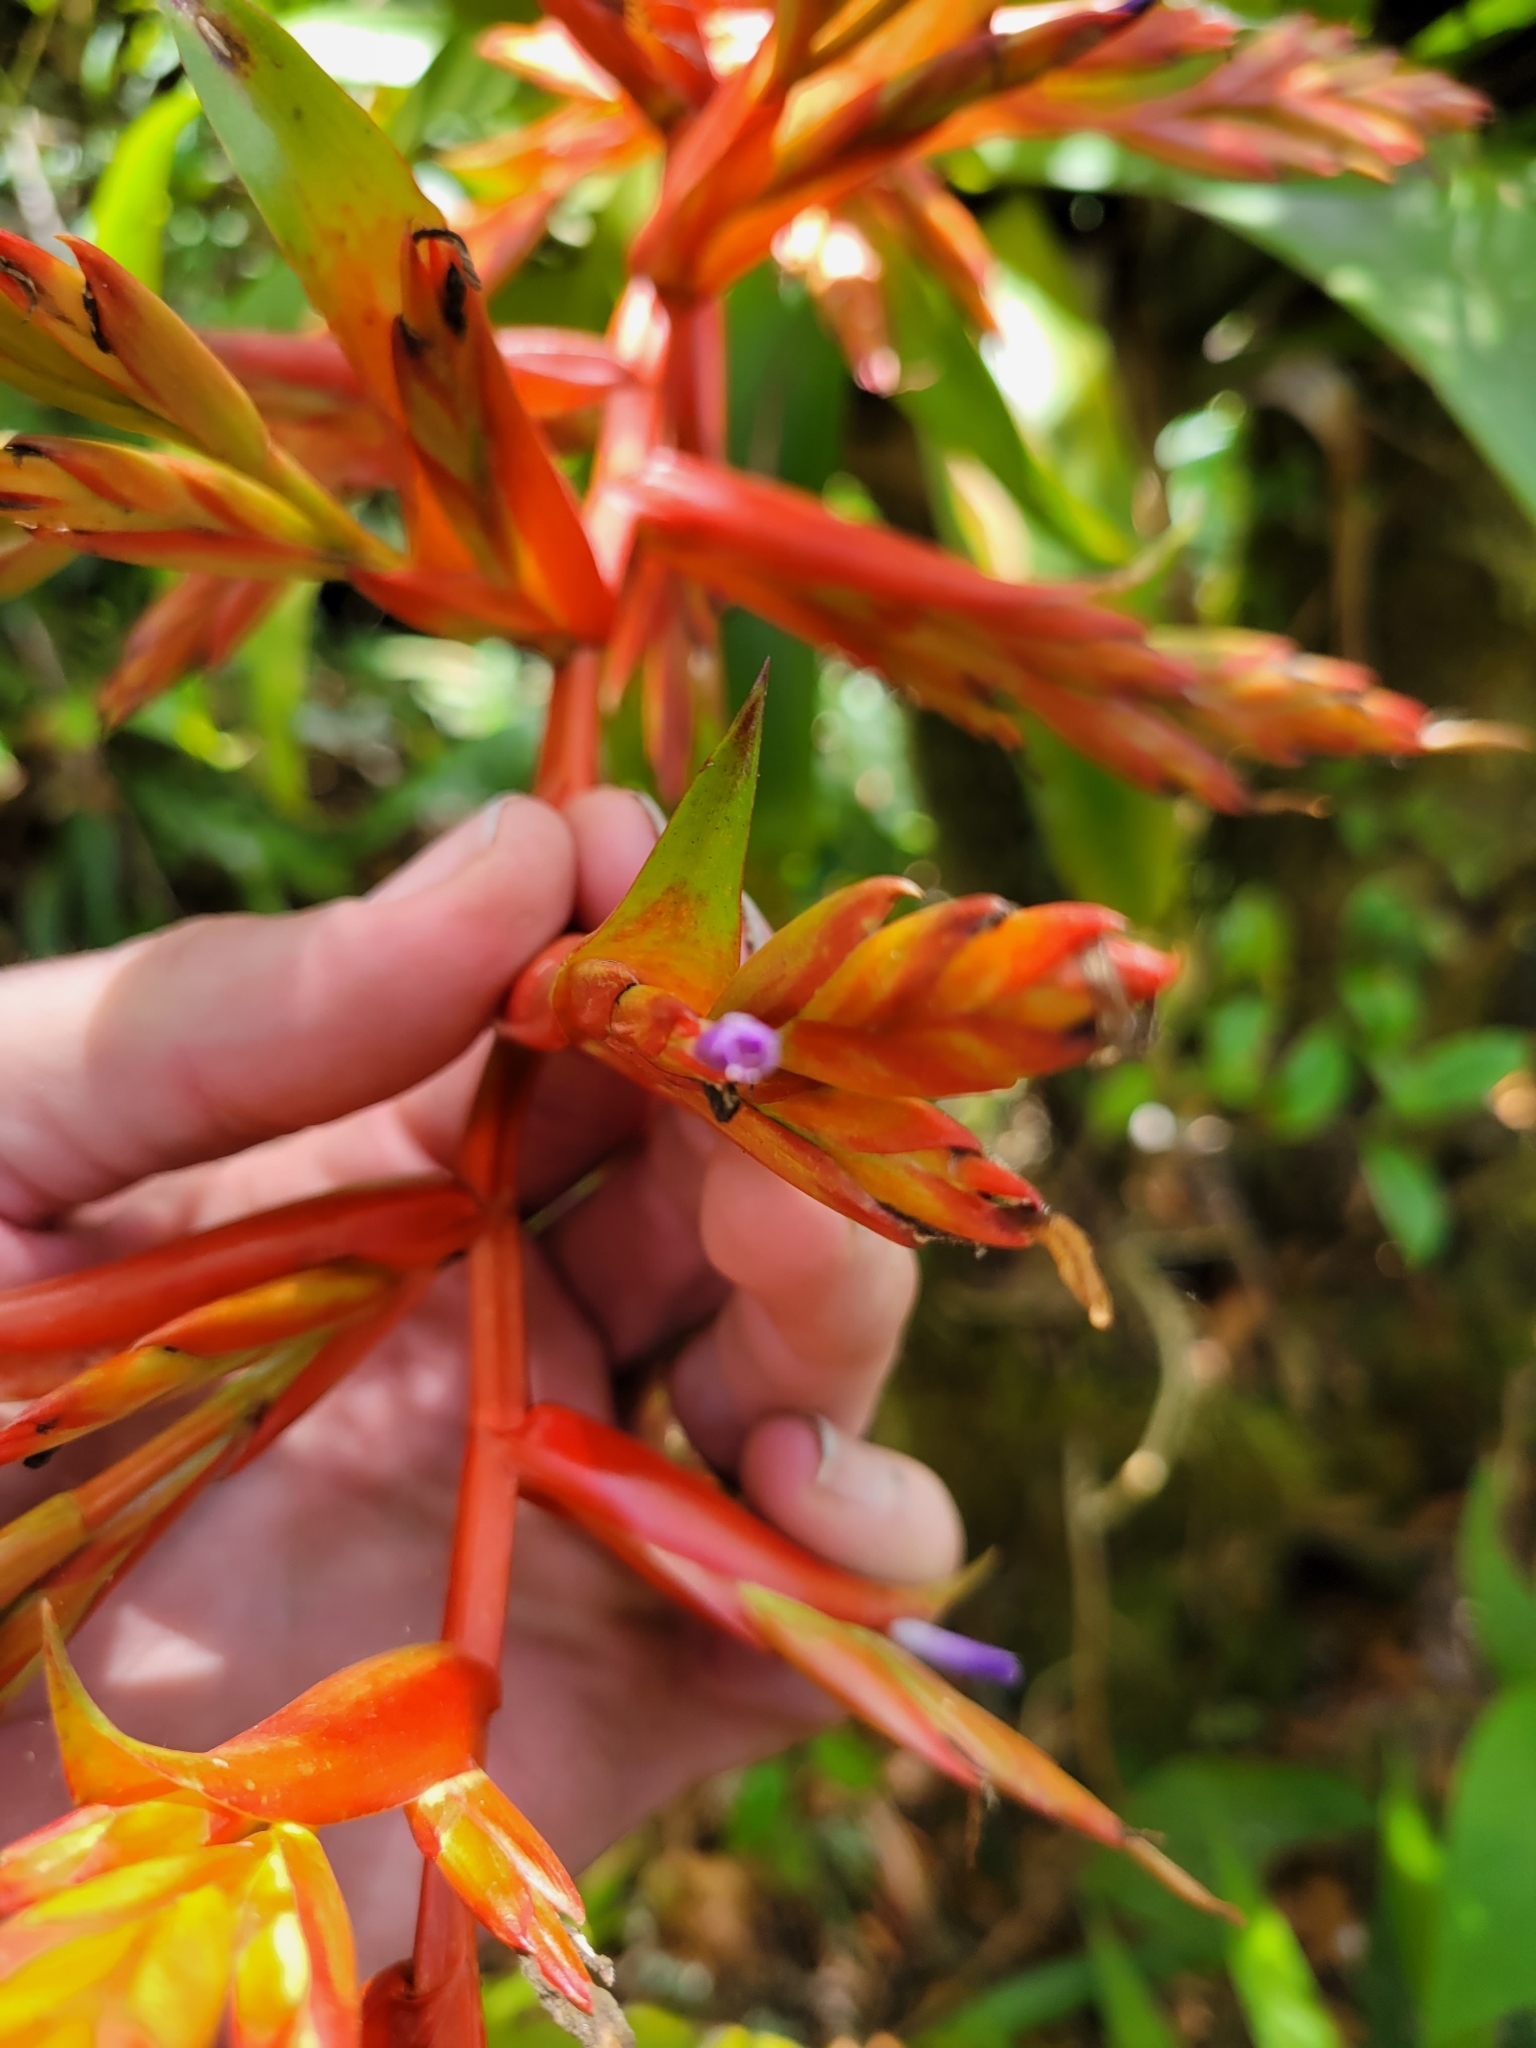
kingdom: Plantae
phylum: Tracheophyta
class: Liliopsida
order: Poales
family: Bromeliaceae
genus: Tillandsia
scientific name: Tillandsia guatemalensis
